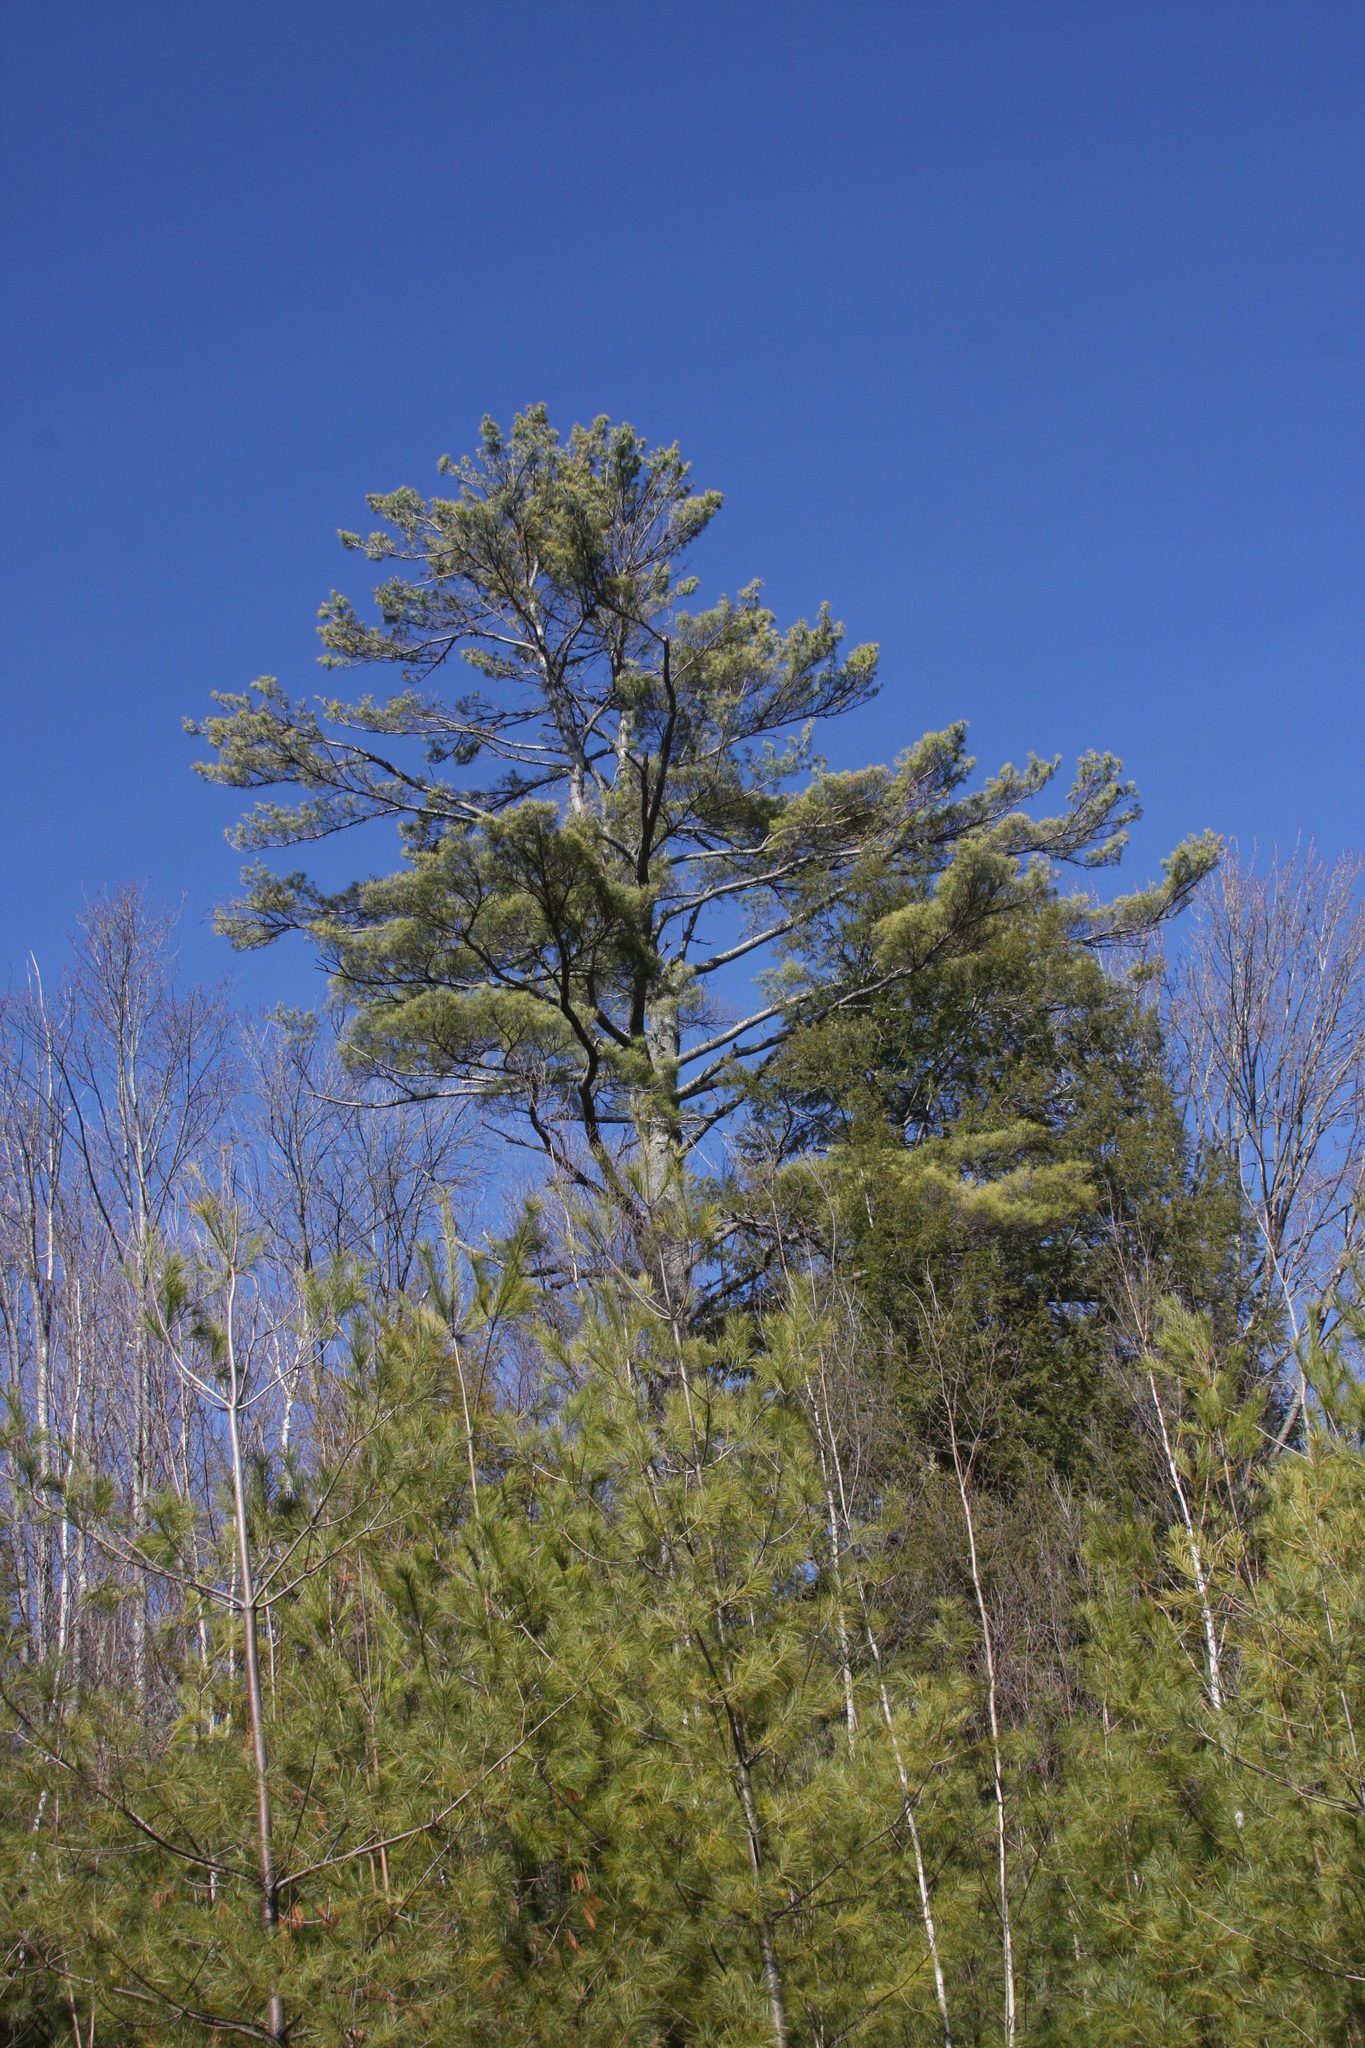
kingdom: Plantae
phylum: Tracheophyta
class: Pinopsida
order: Pinales
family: Pinaceae
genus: Pinus
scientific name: Pinus strobus
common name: Weymouth pine
